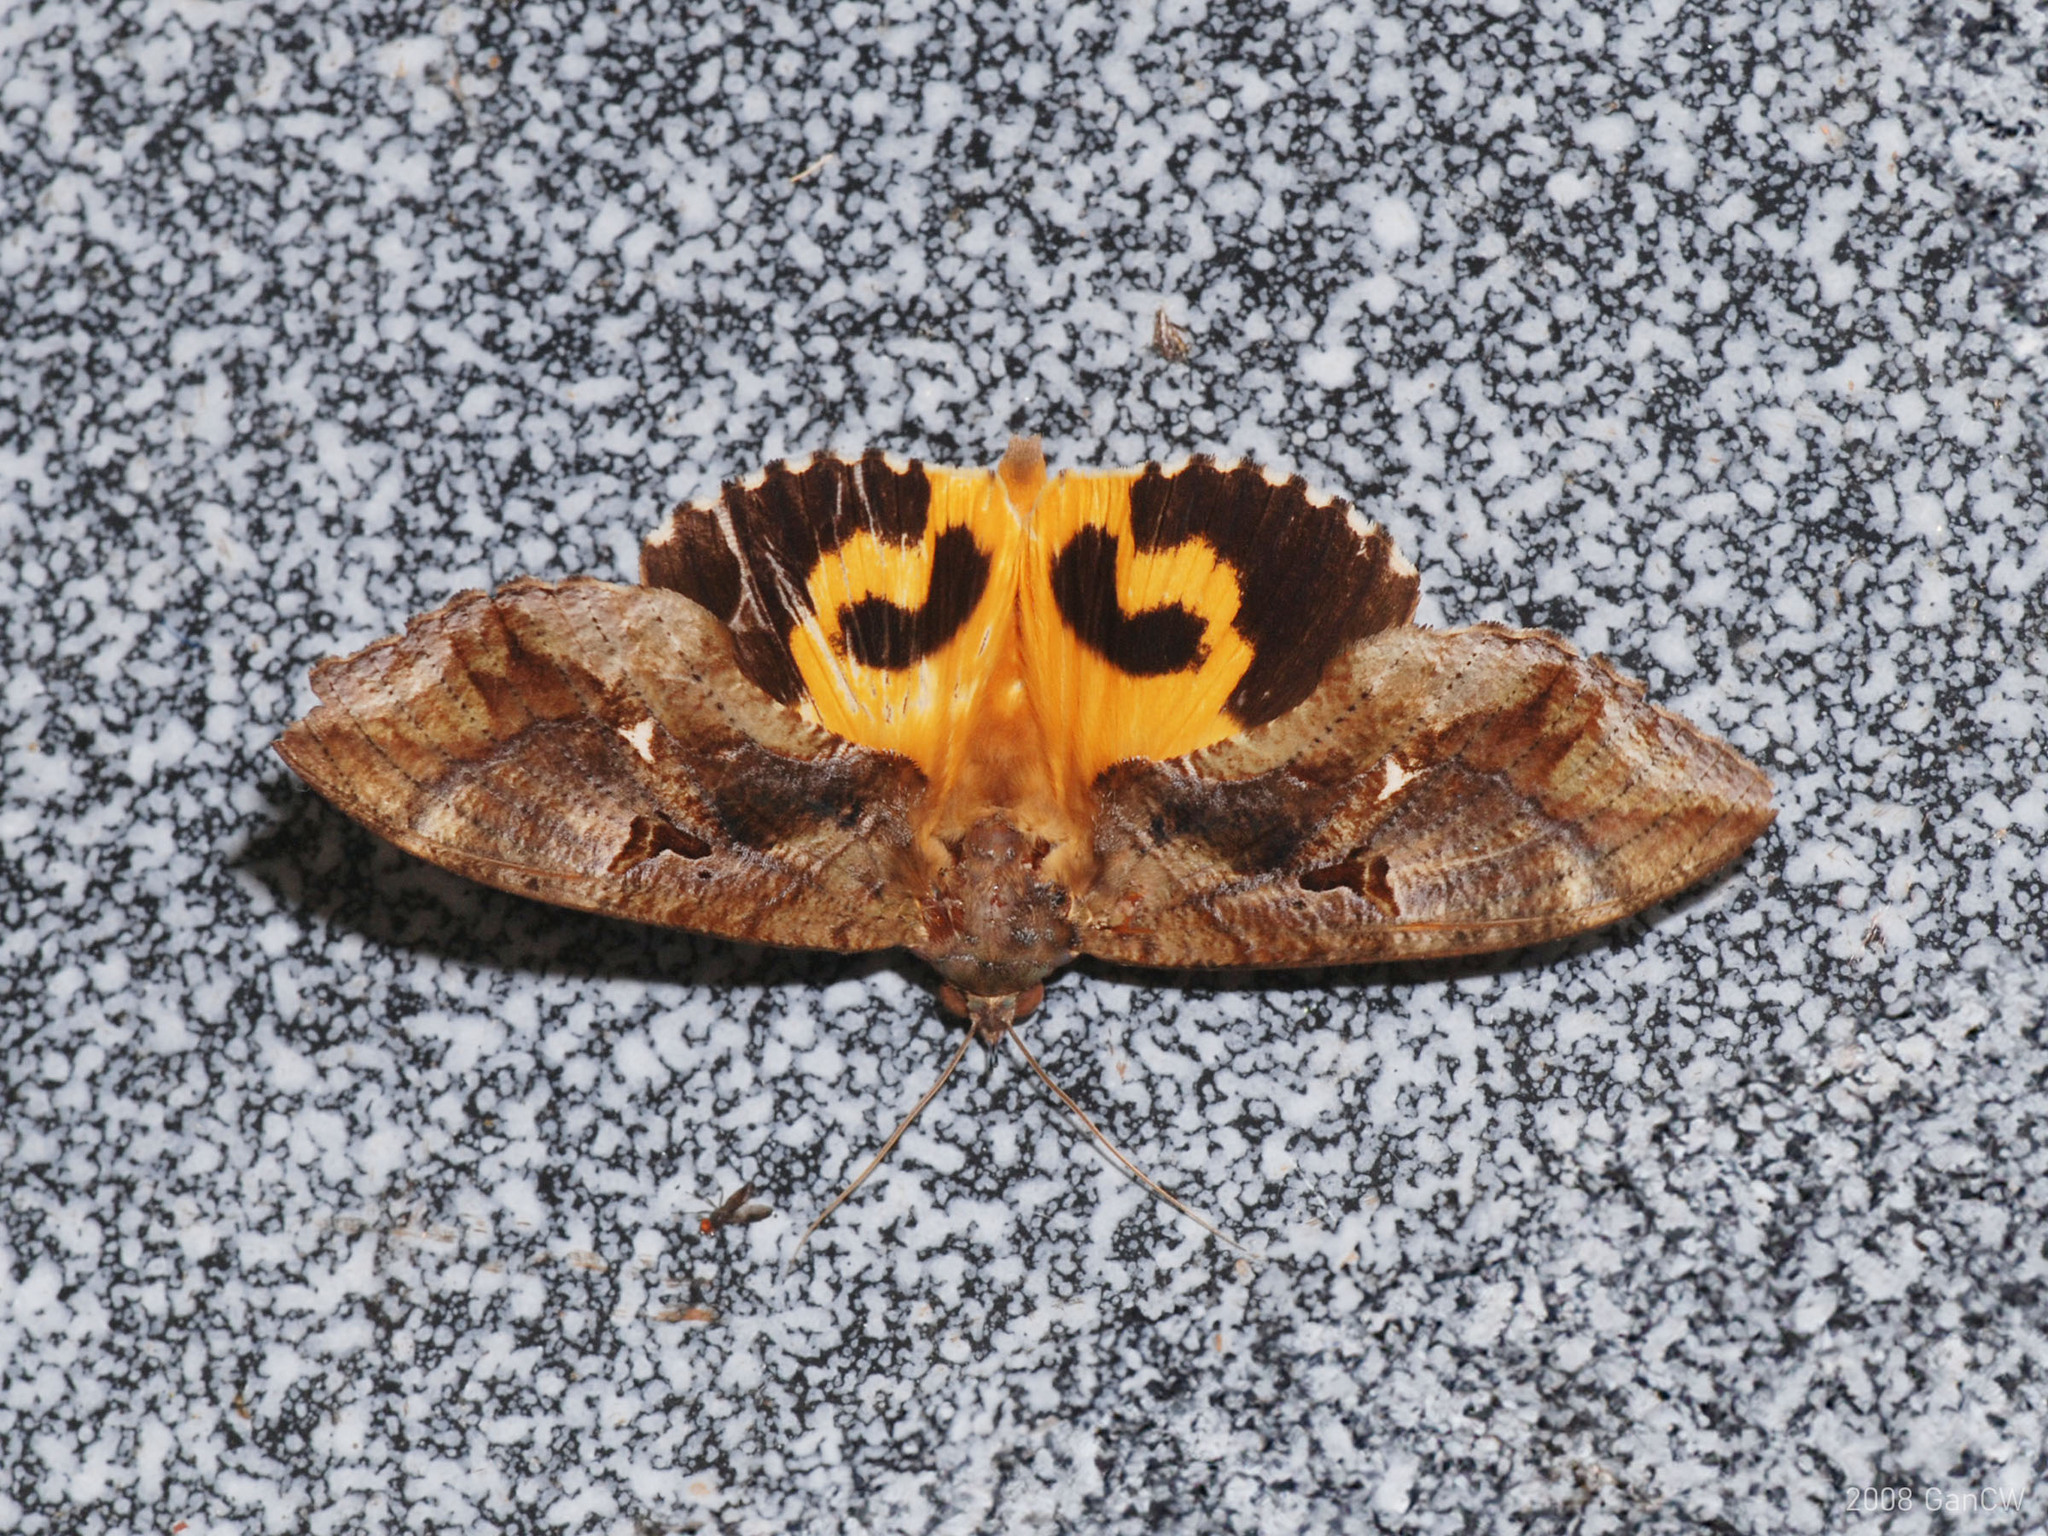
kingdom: Animalia
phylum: Arthropoda
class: Insecta
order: Lepidoptera
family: Erebidae
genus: Eudocima
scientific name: Eudocima phalonia
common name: Wasp
